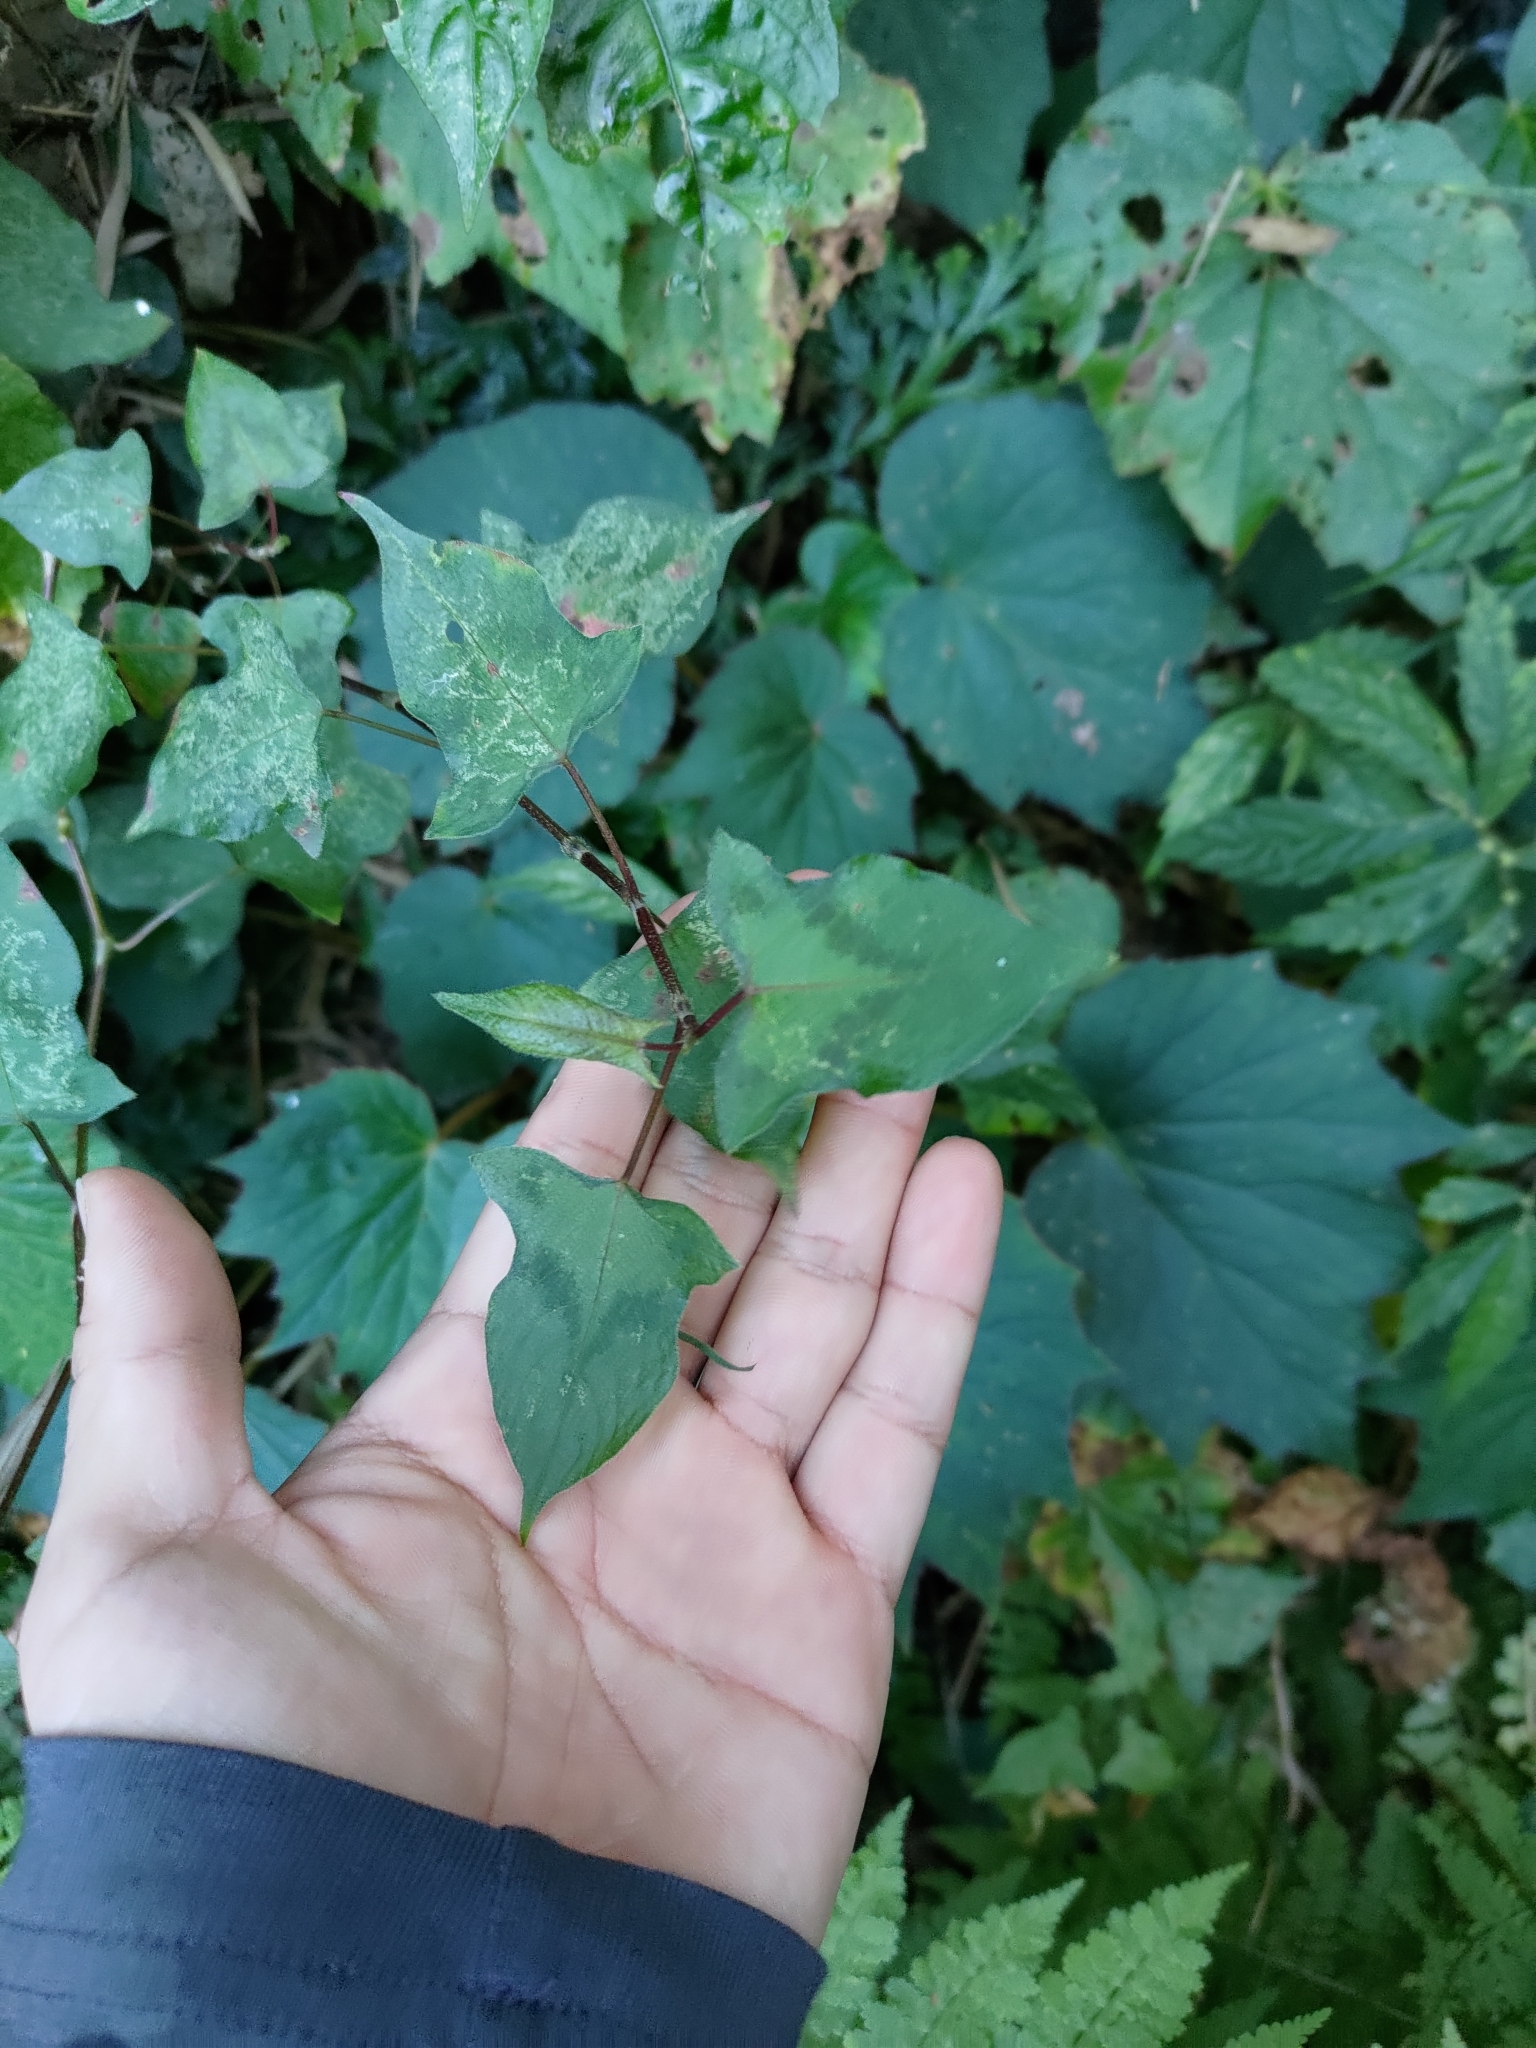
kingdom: Plantae
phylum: Tracheophyta
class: Magnoliopsida
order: Caryophyllales
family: Polygonaceae
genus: Persicaria
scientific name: Persicaria biconvexa
